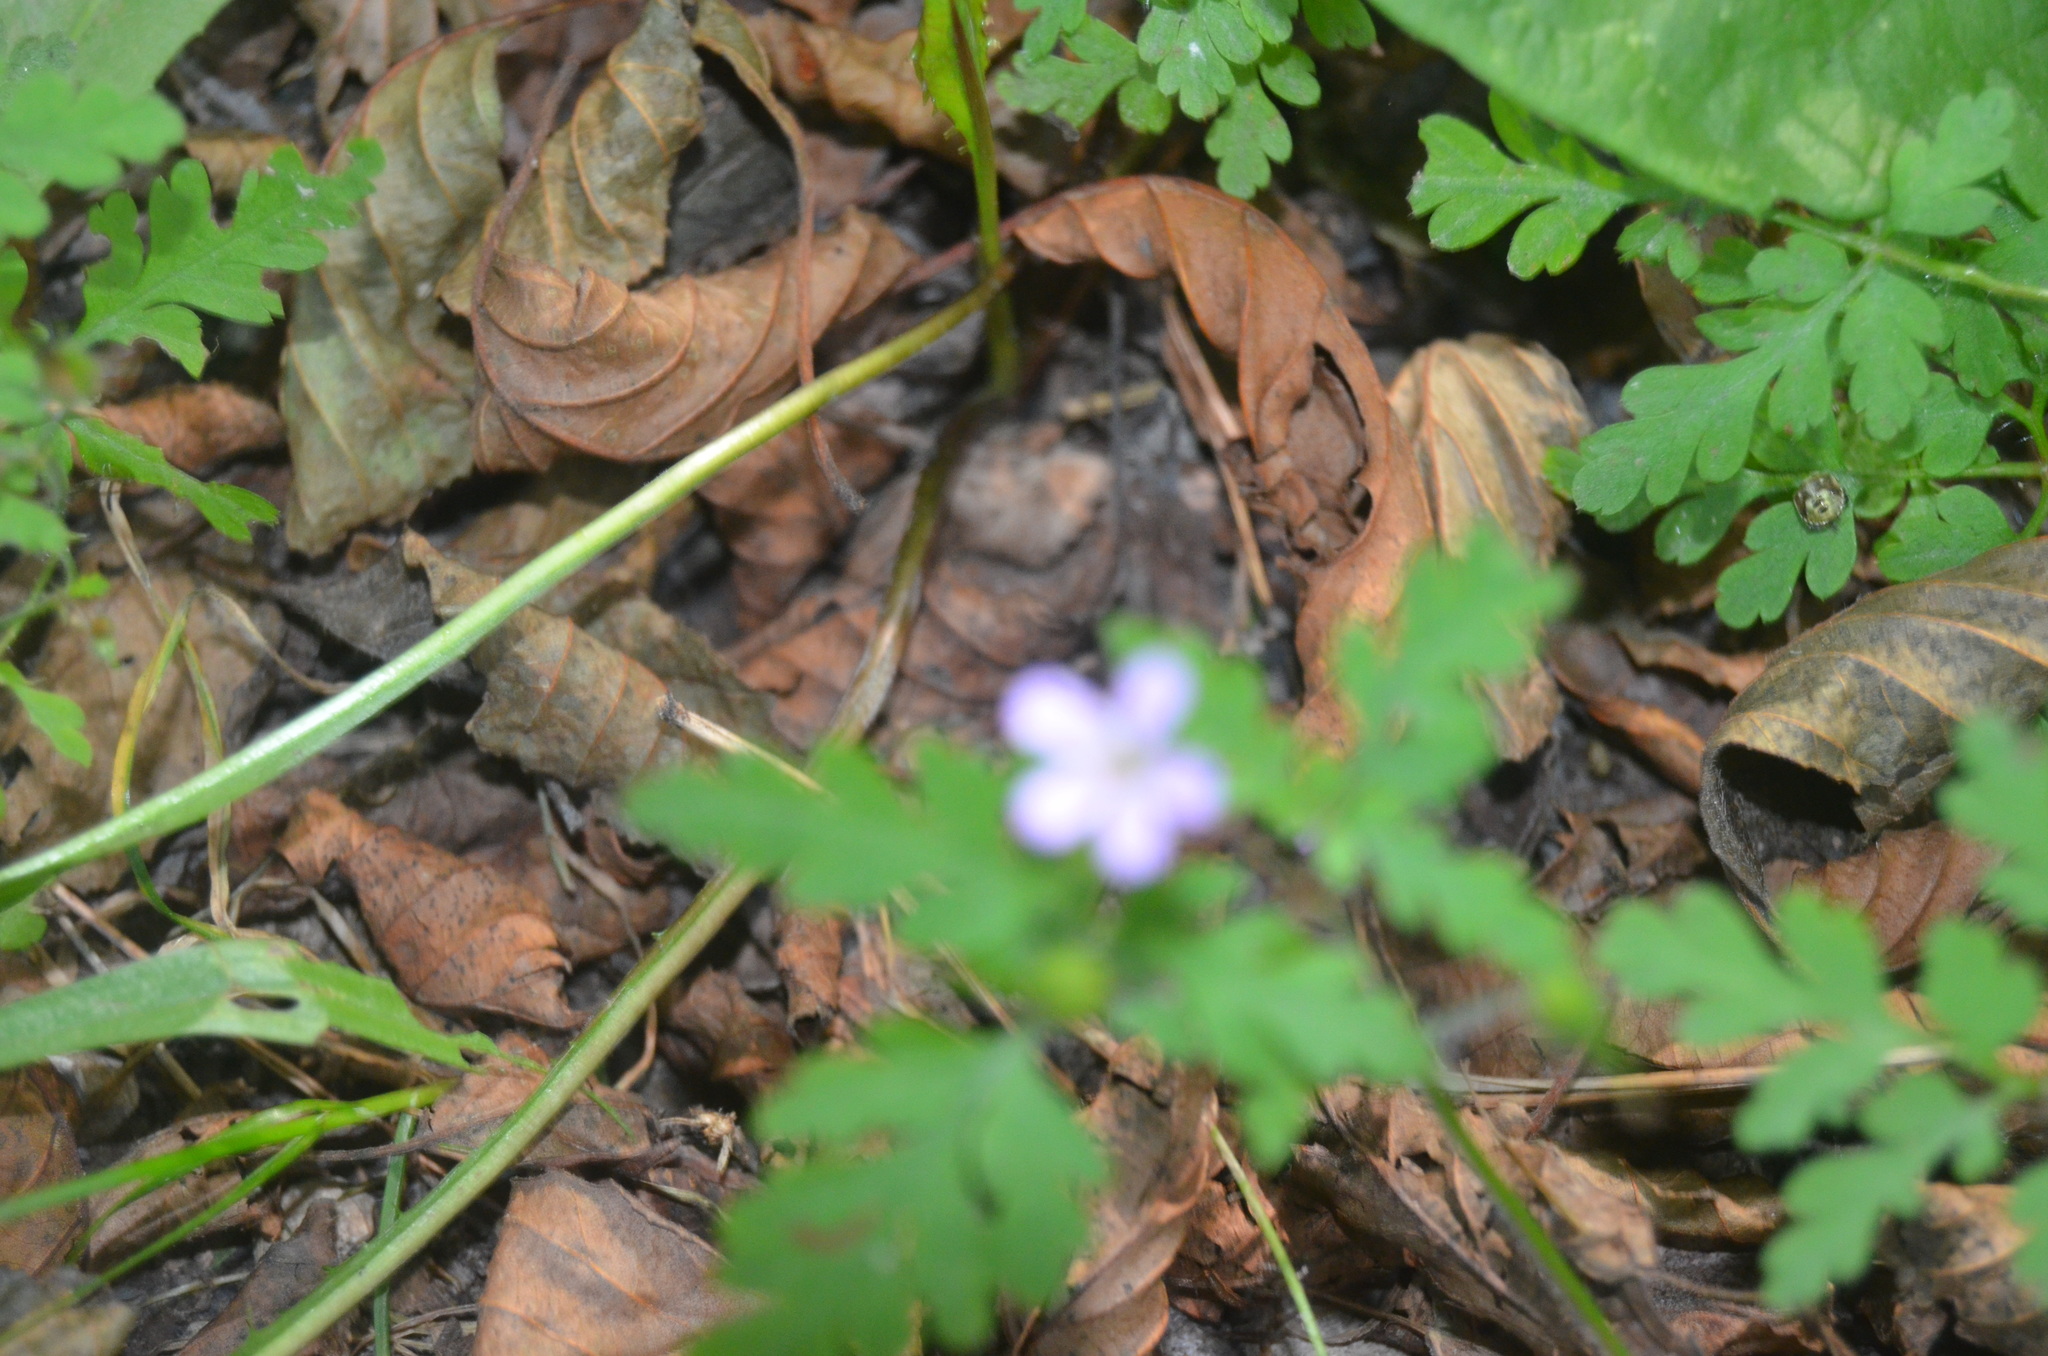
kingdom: Plantae
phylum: Tracheophyta
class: Magnoliopsida
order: Geraniales
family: Geraniaceae
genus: Geranium
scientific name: Geranium robertianum
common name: Herb-robert
